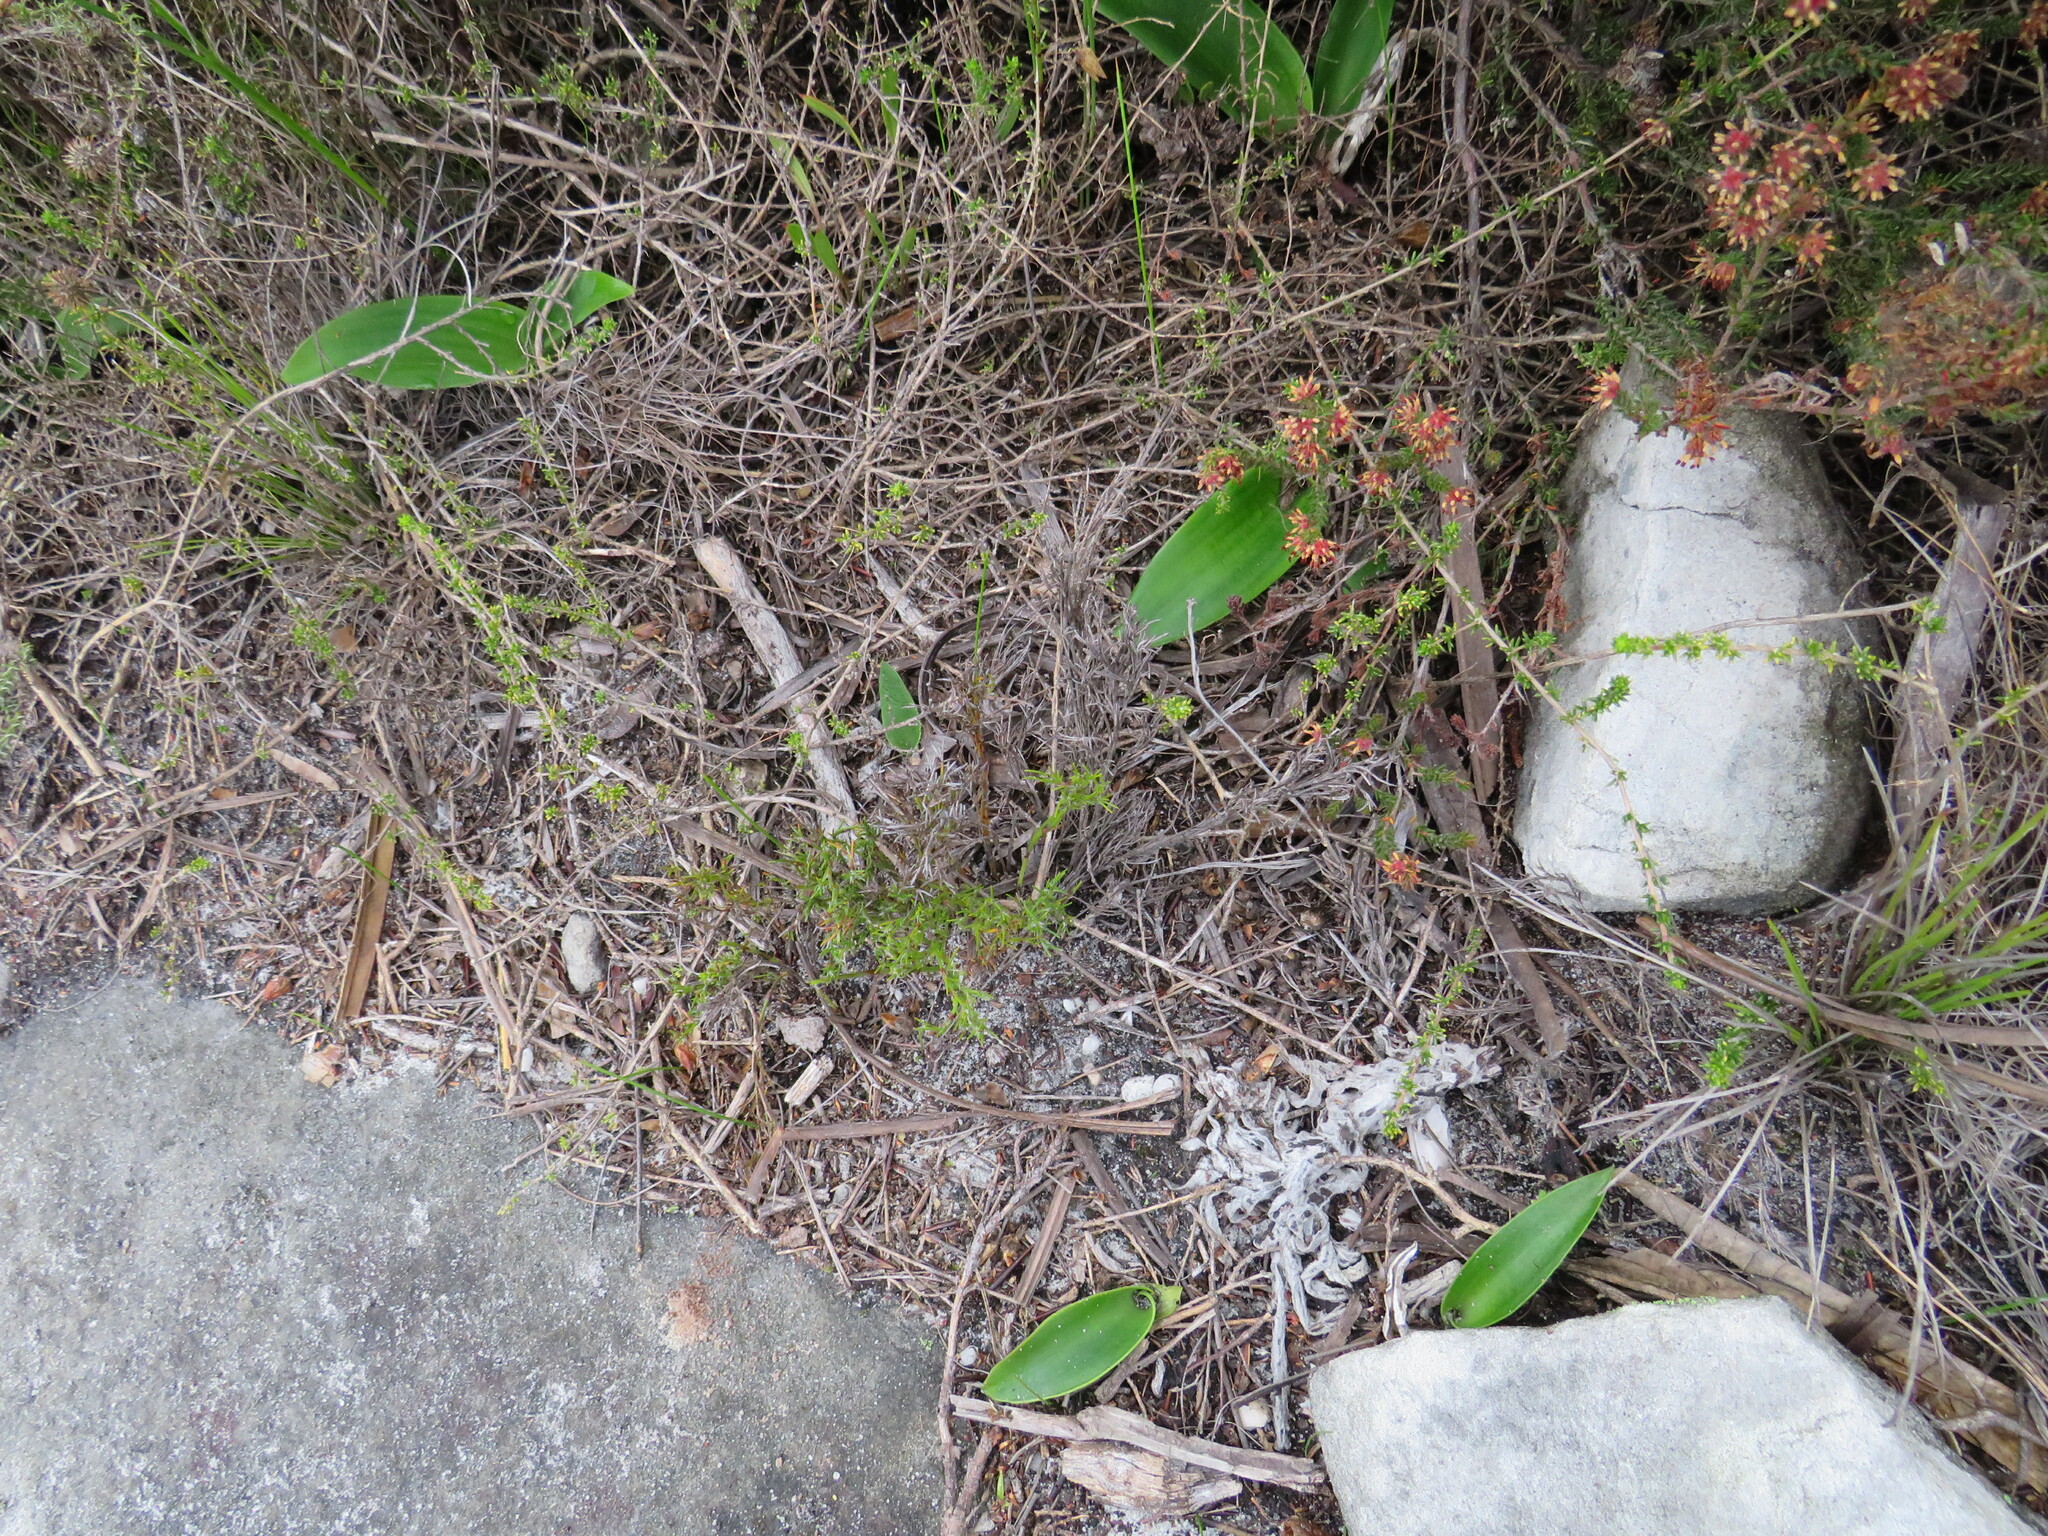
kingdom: Plantae
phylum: Tracheophyta
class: Liliopsida
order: Asparagales
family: Orchidaceae
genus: Satyrium
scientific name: Satyrium coriifolium
